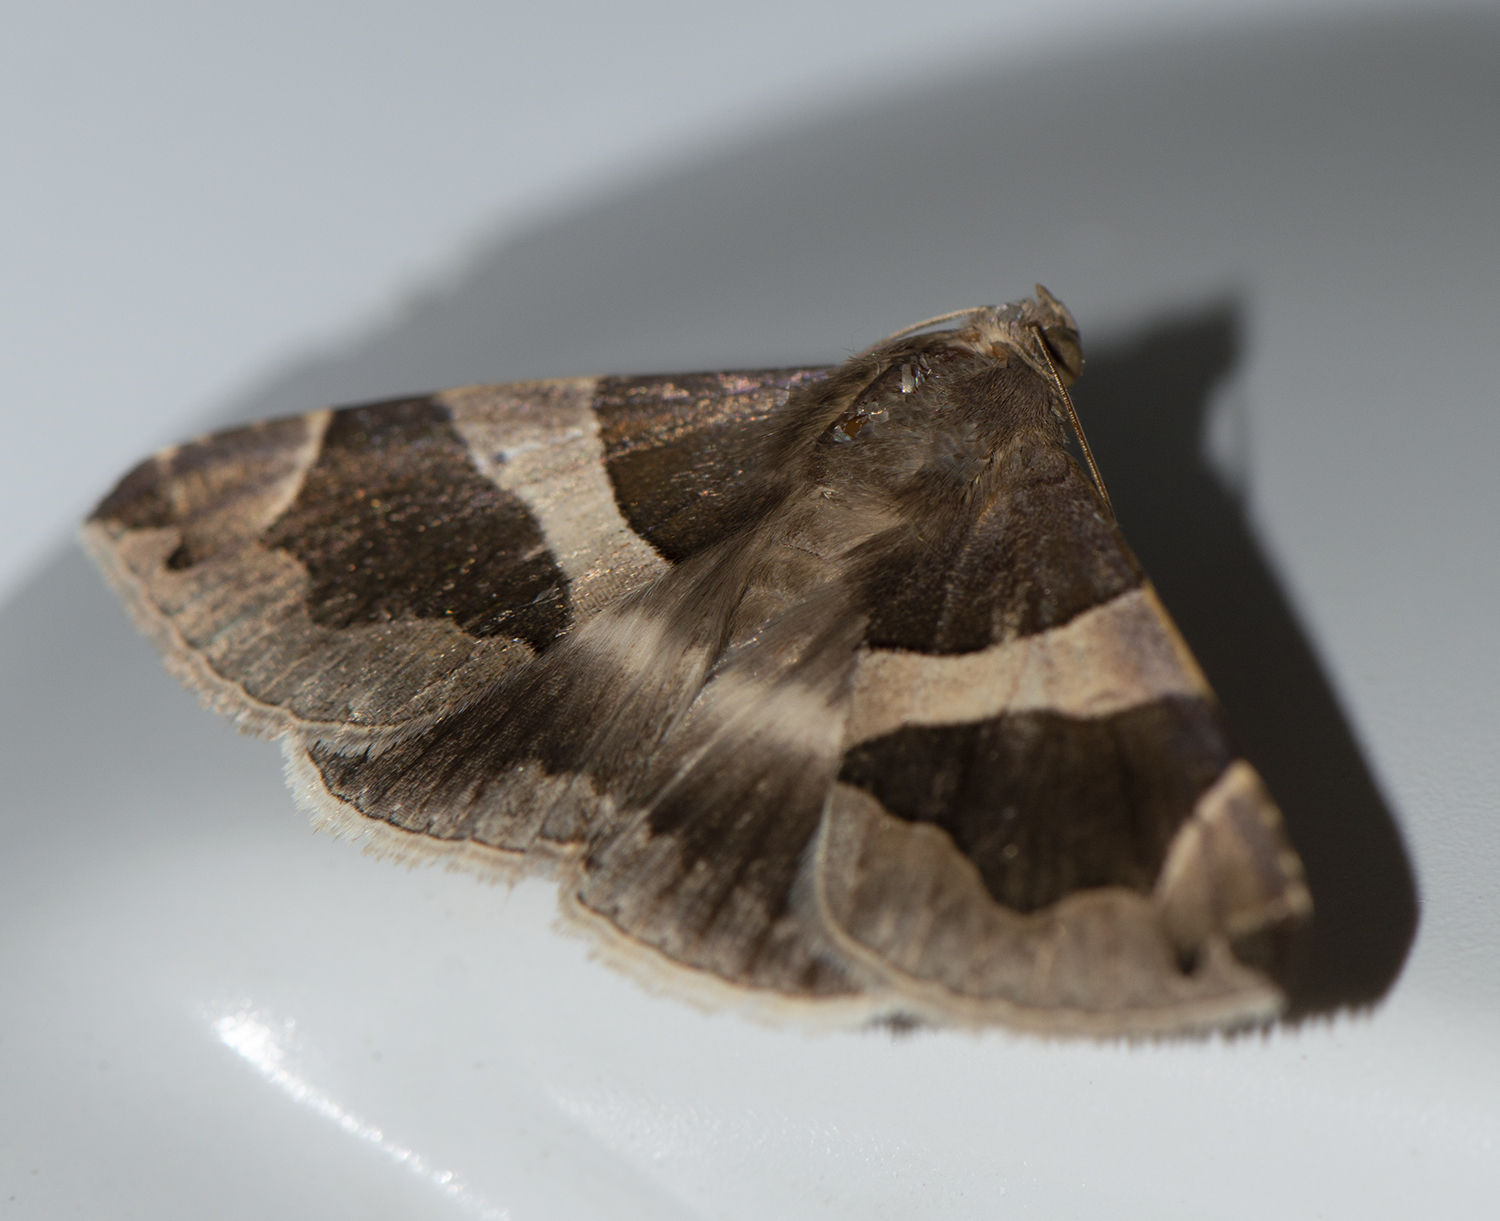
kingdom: Animalia
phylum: Arthropoda
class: Insecta
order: Lepidoptera
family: Erebidae
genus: Dysgonia
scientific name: Dysgonia torrida
